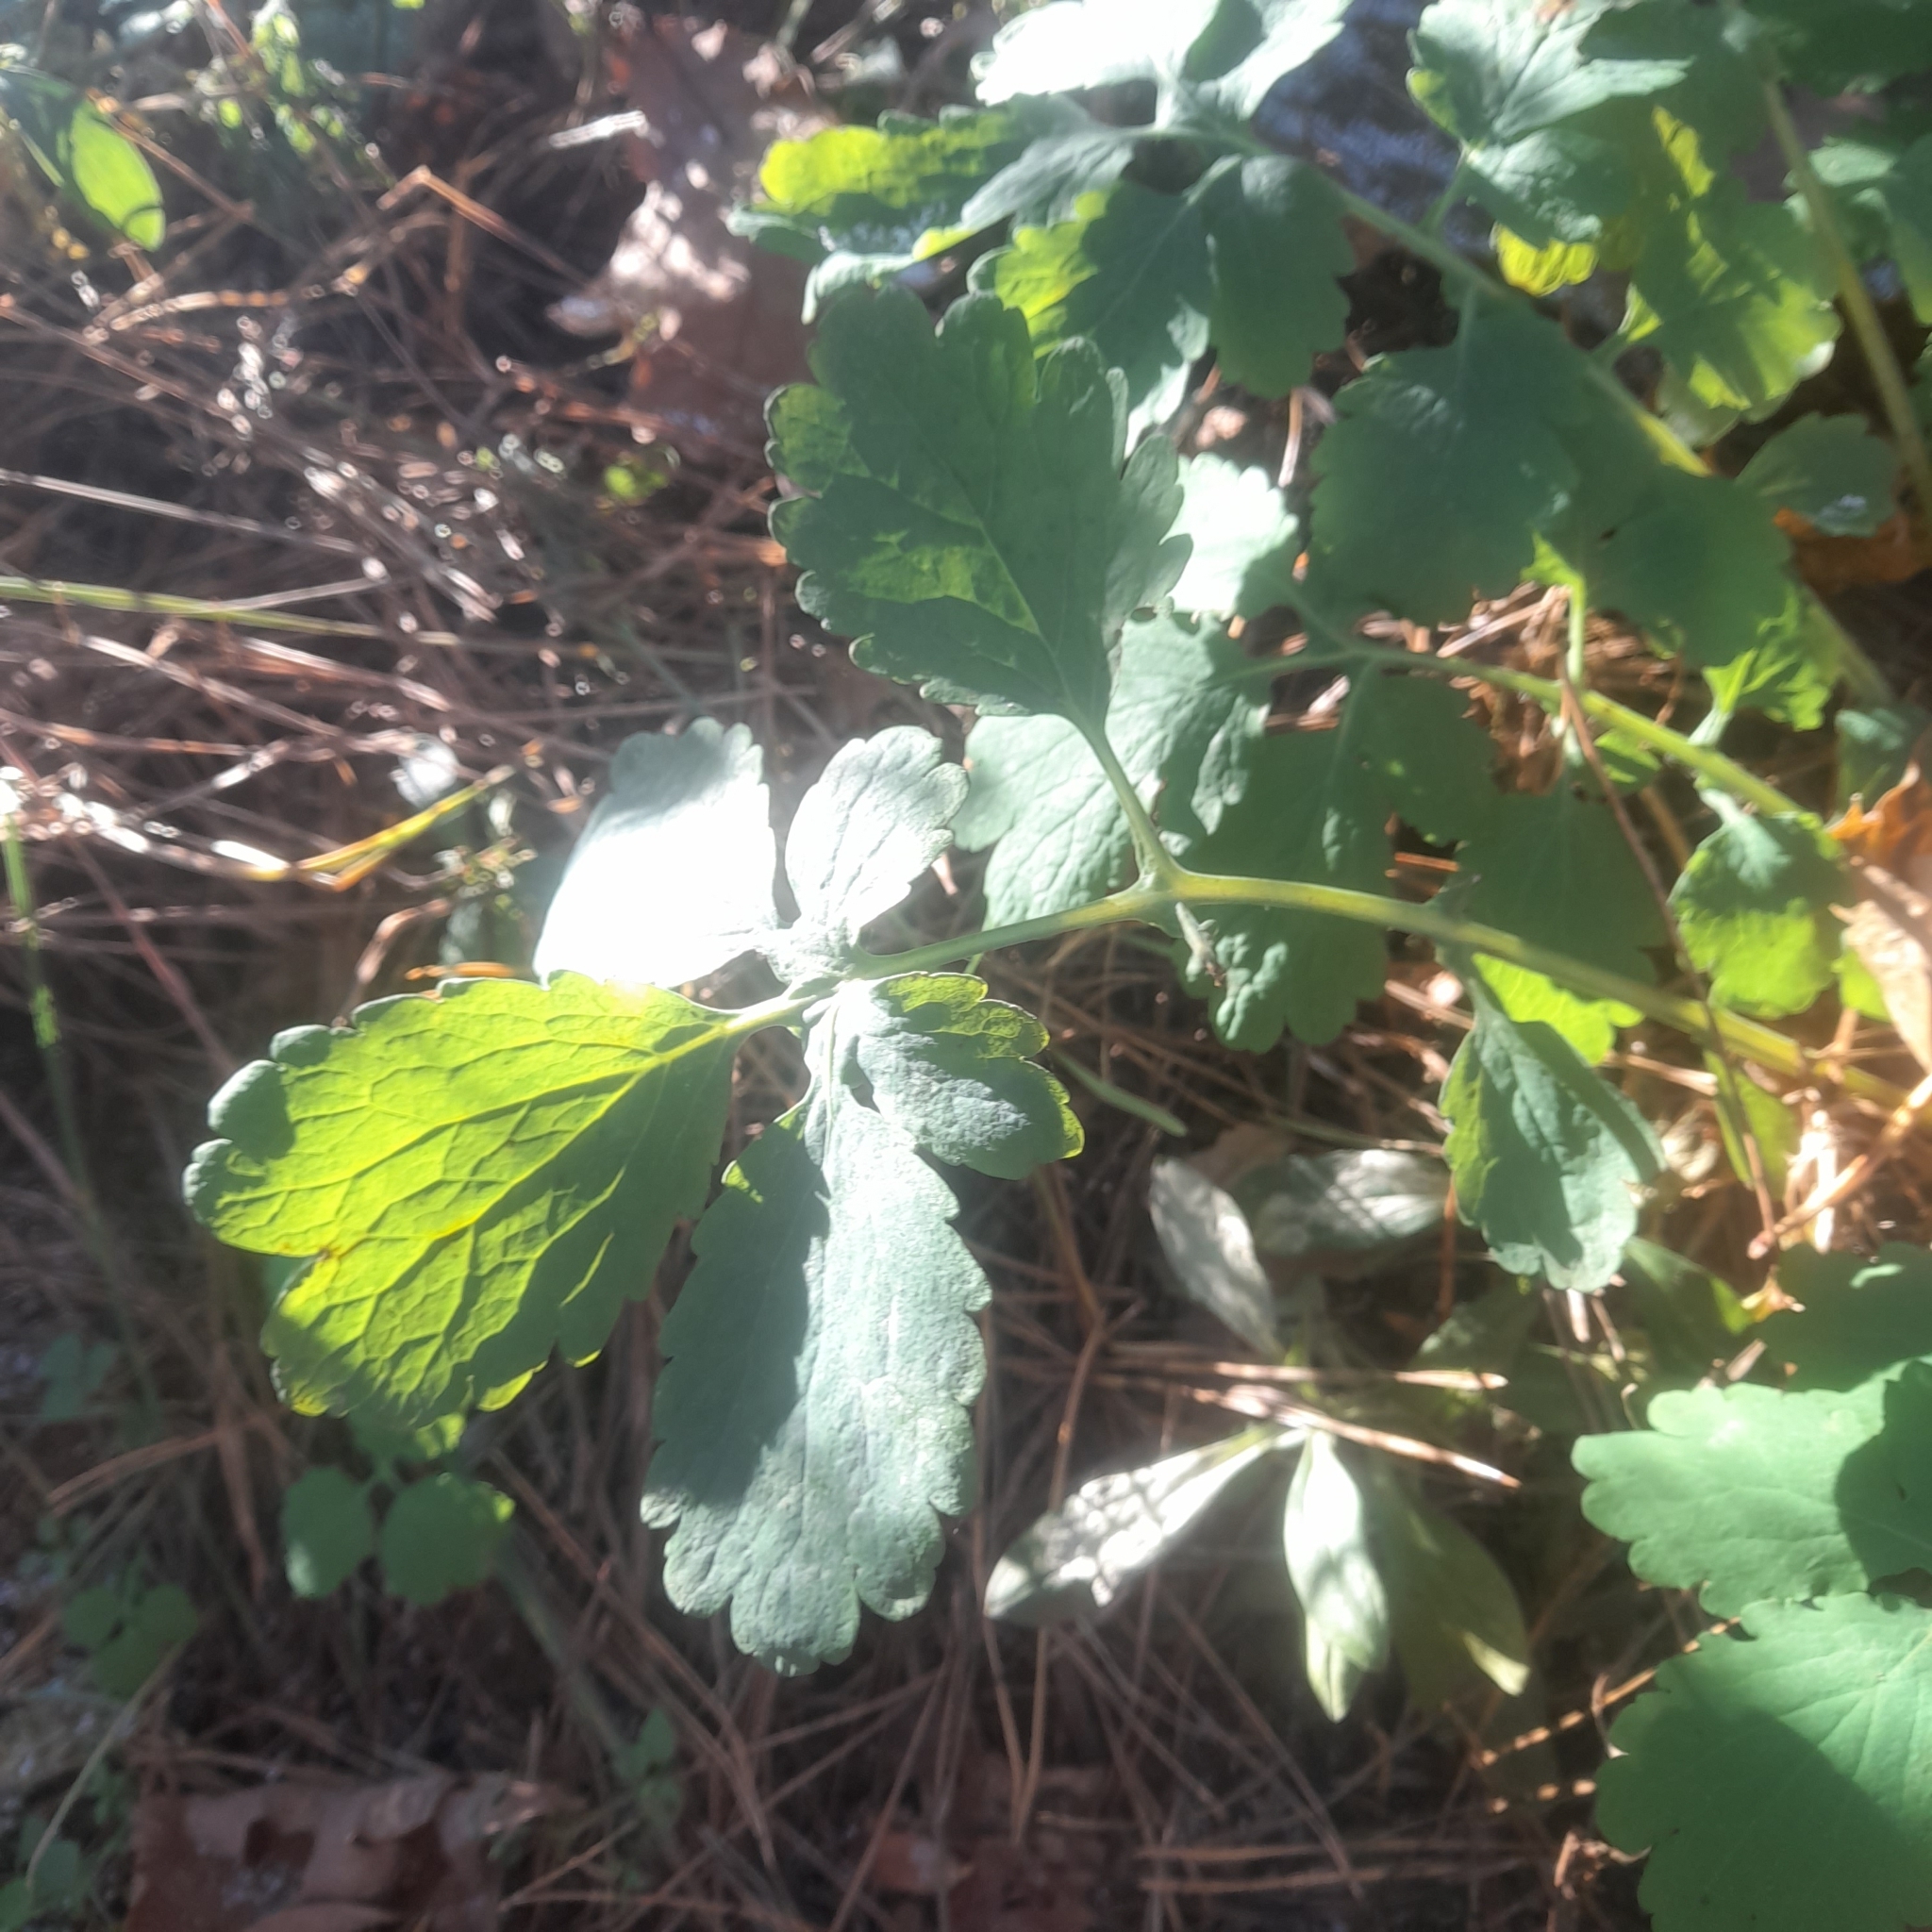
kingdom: Plantae
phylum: Tracheophyta
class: Magnoliopsida
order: Ranunculales
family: Papaveraceae
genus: Chelidonium
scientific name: Chelidonium majus
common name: Greater celandine
